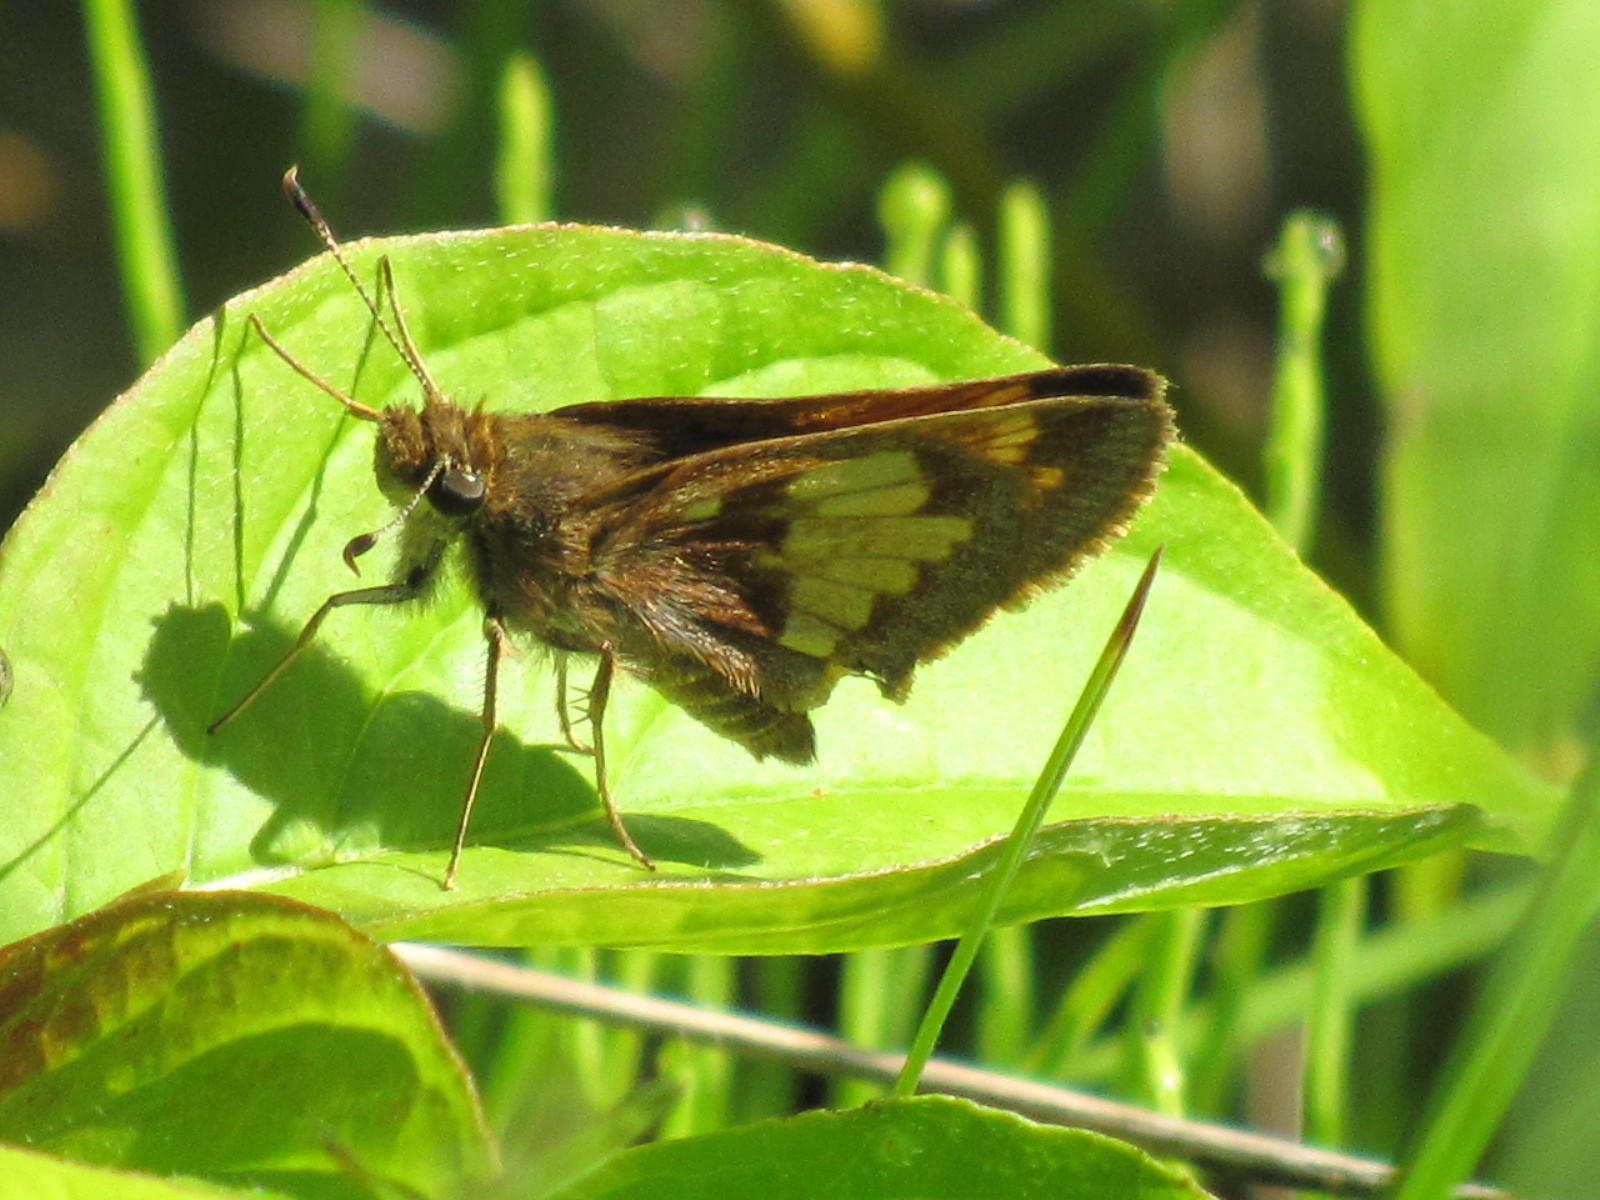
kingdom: Animalia
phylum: Arthropoda
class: Insecta
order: Lepidoptera
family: Hesperiidae
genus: Lon
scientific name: Lon hobomok
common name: Hobomok skipper
